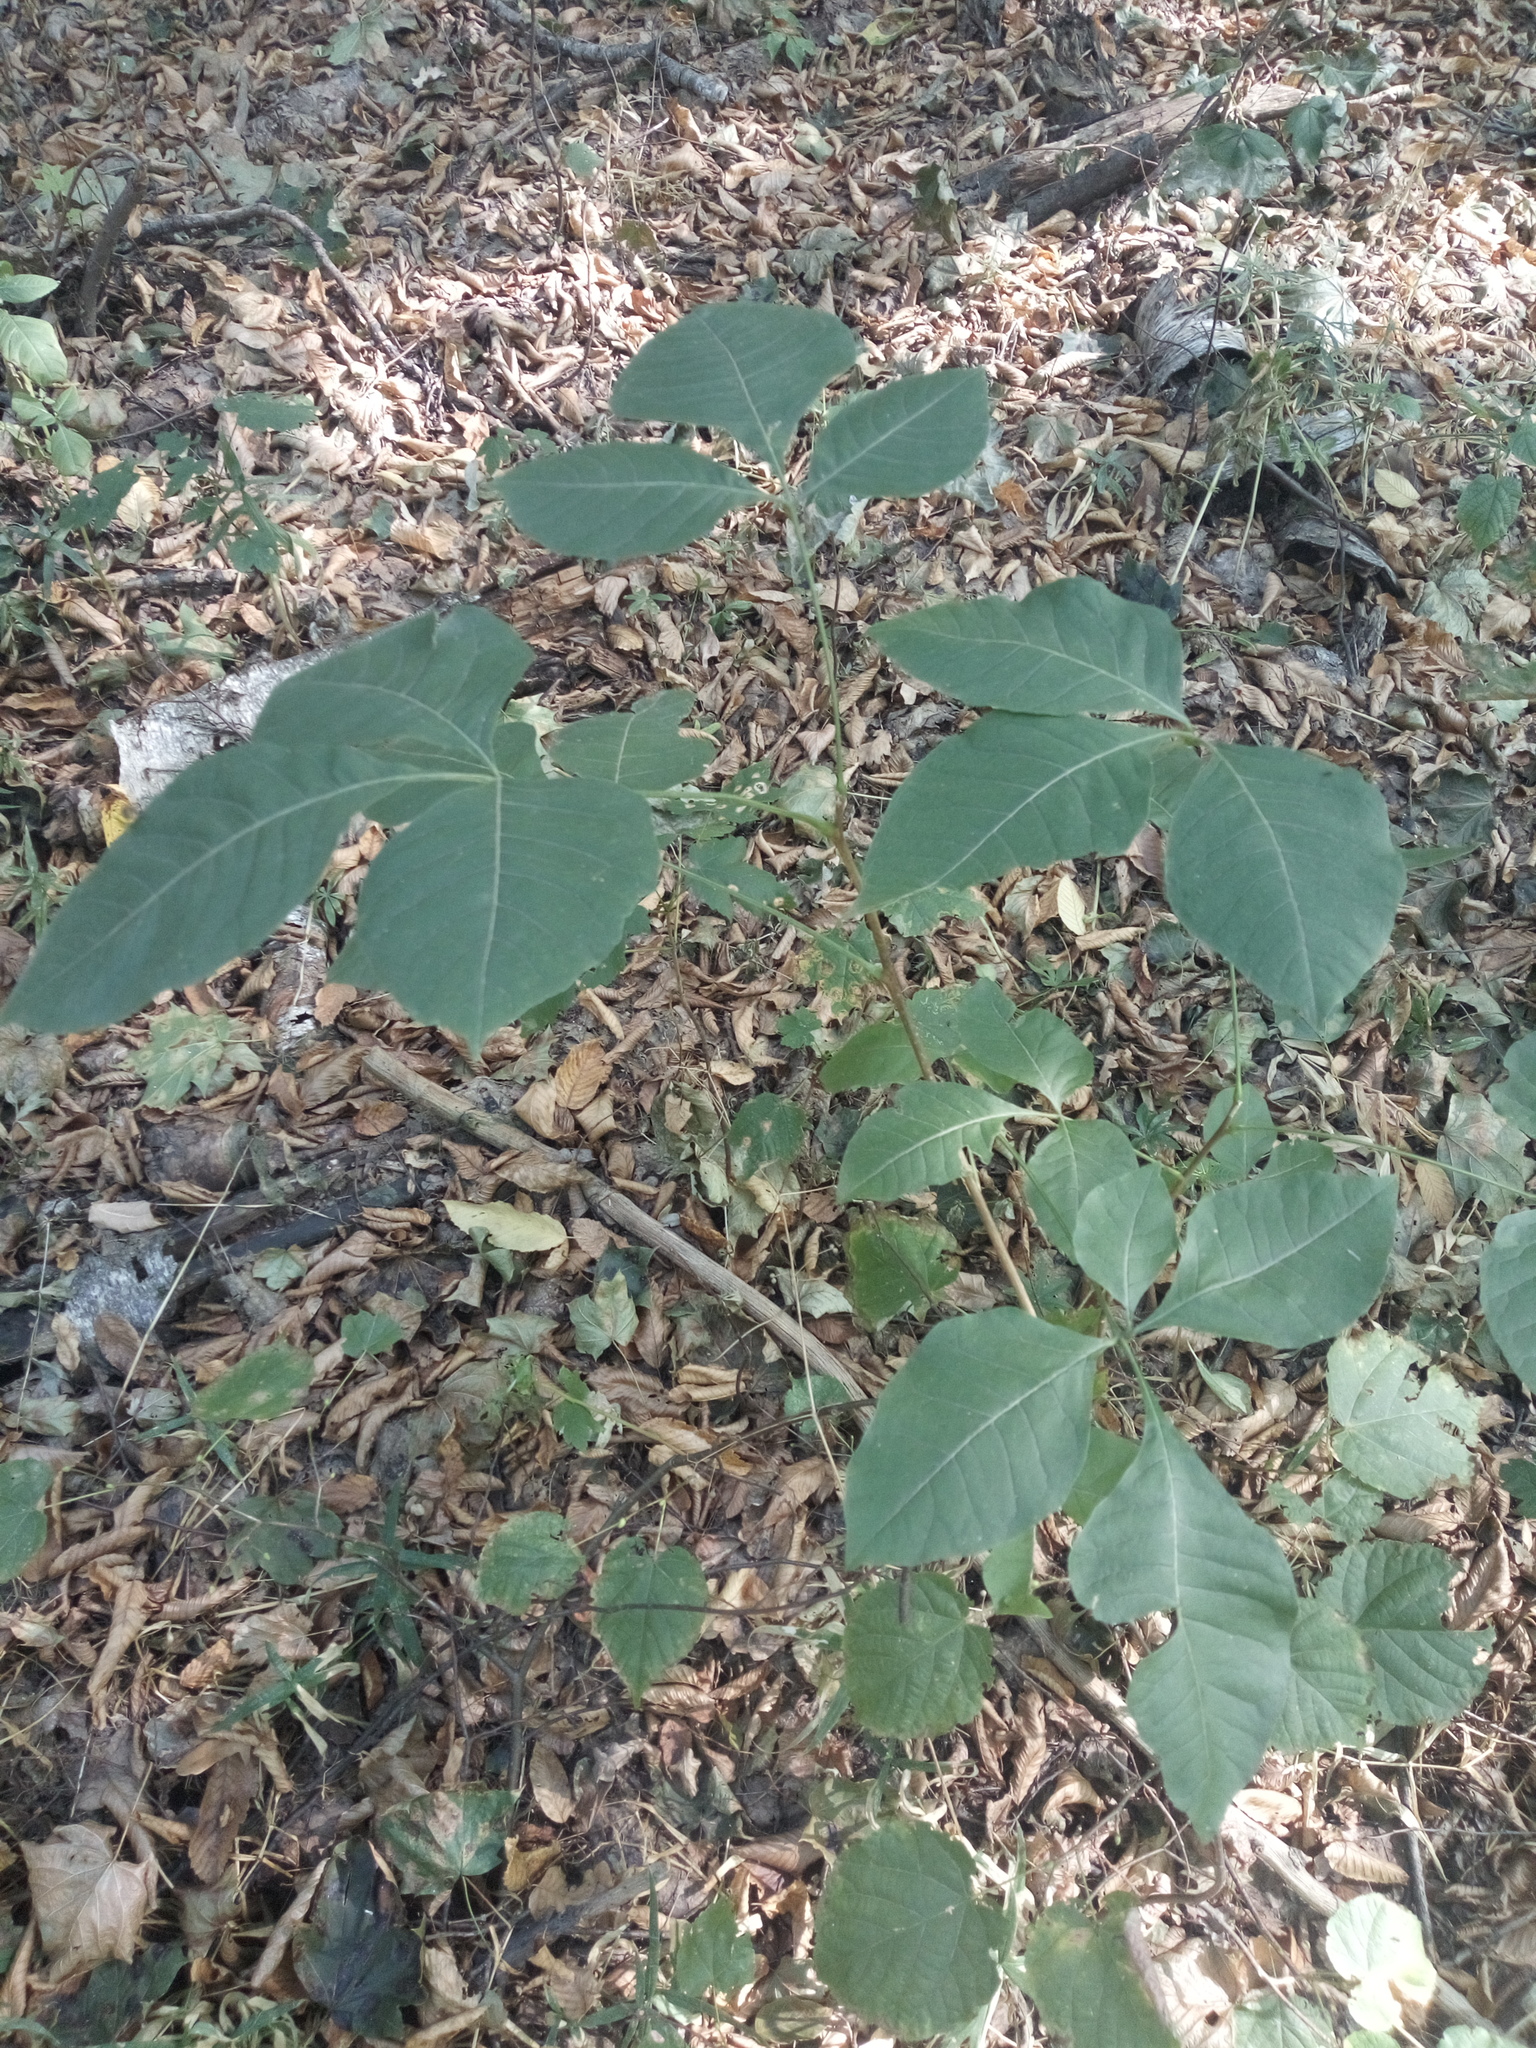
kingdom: Plantae
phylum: Tracheophyta
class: Magnoliopsida
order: Sapindales
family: Rutaceae
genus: Ptelea
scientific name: Ptelea trifoliata
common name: Common hop-tree
